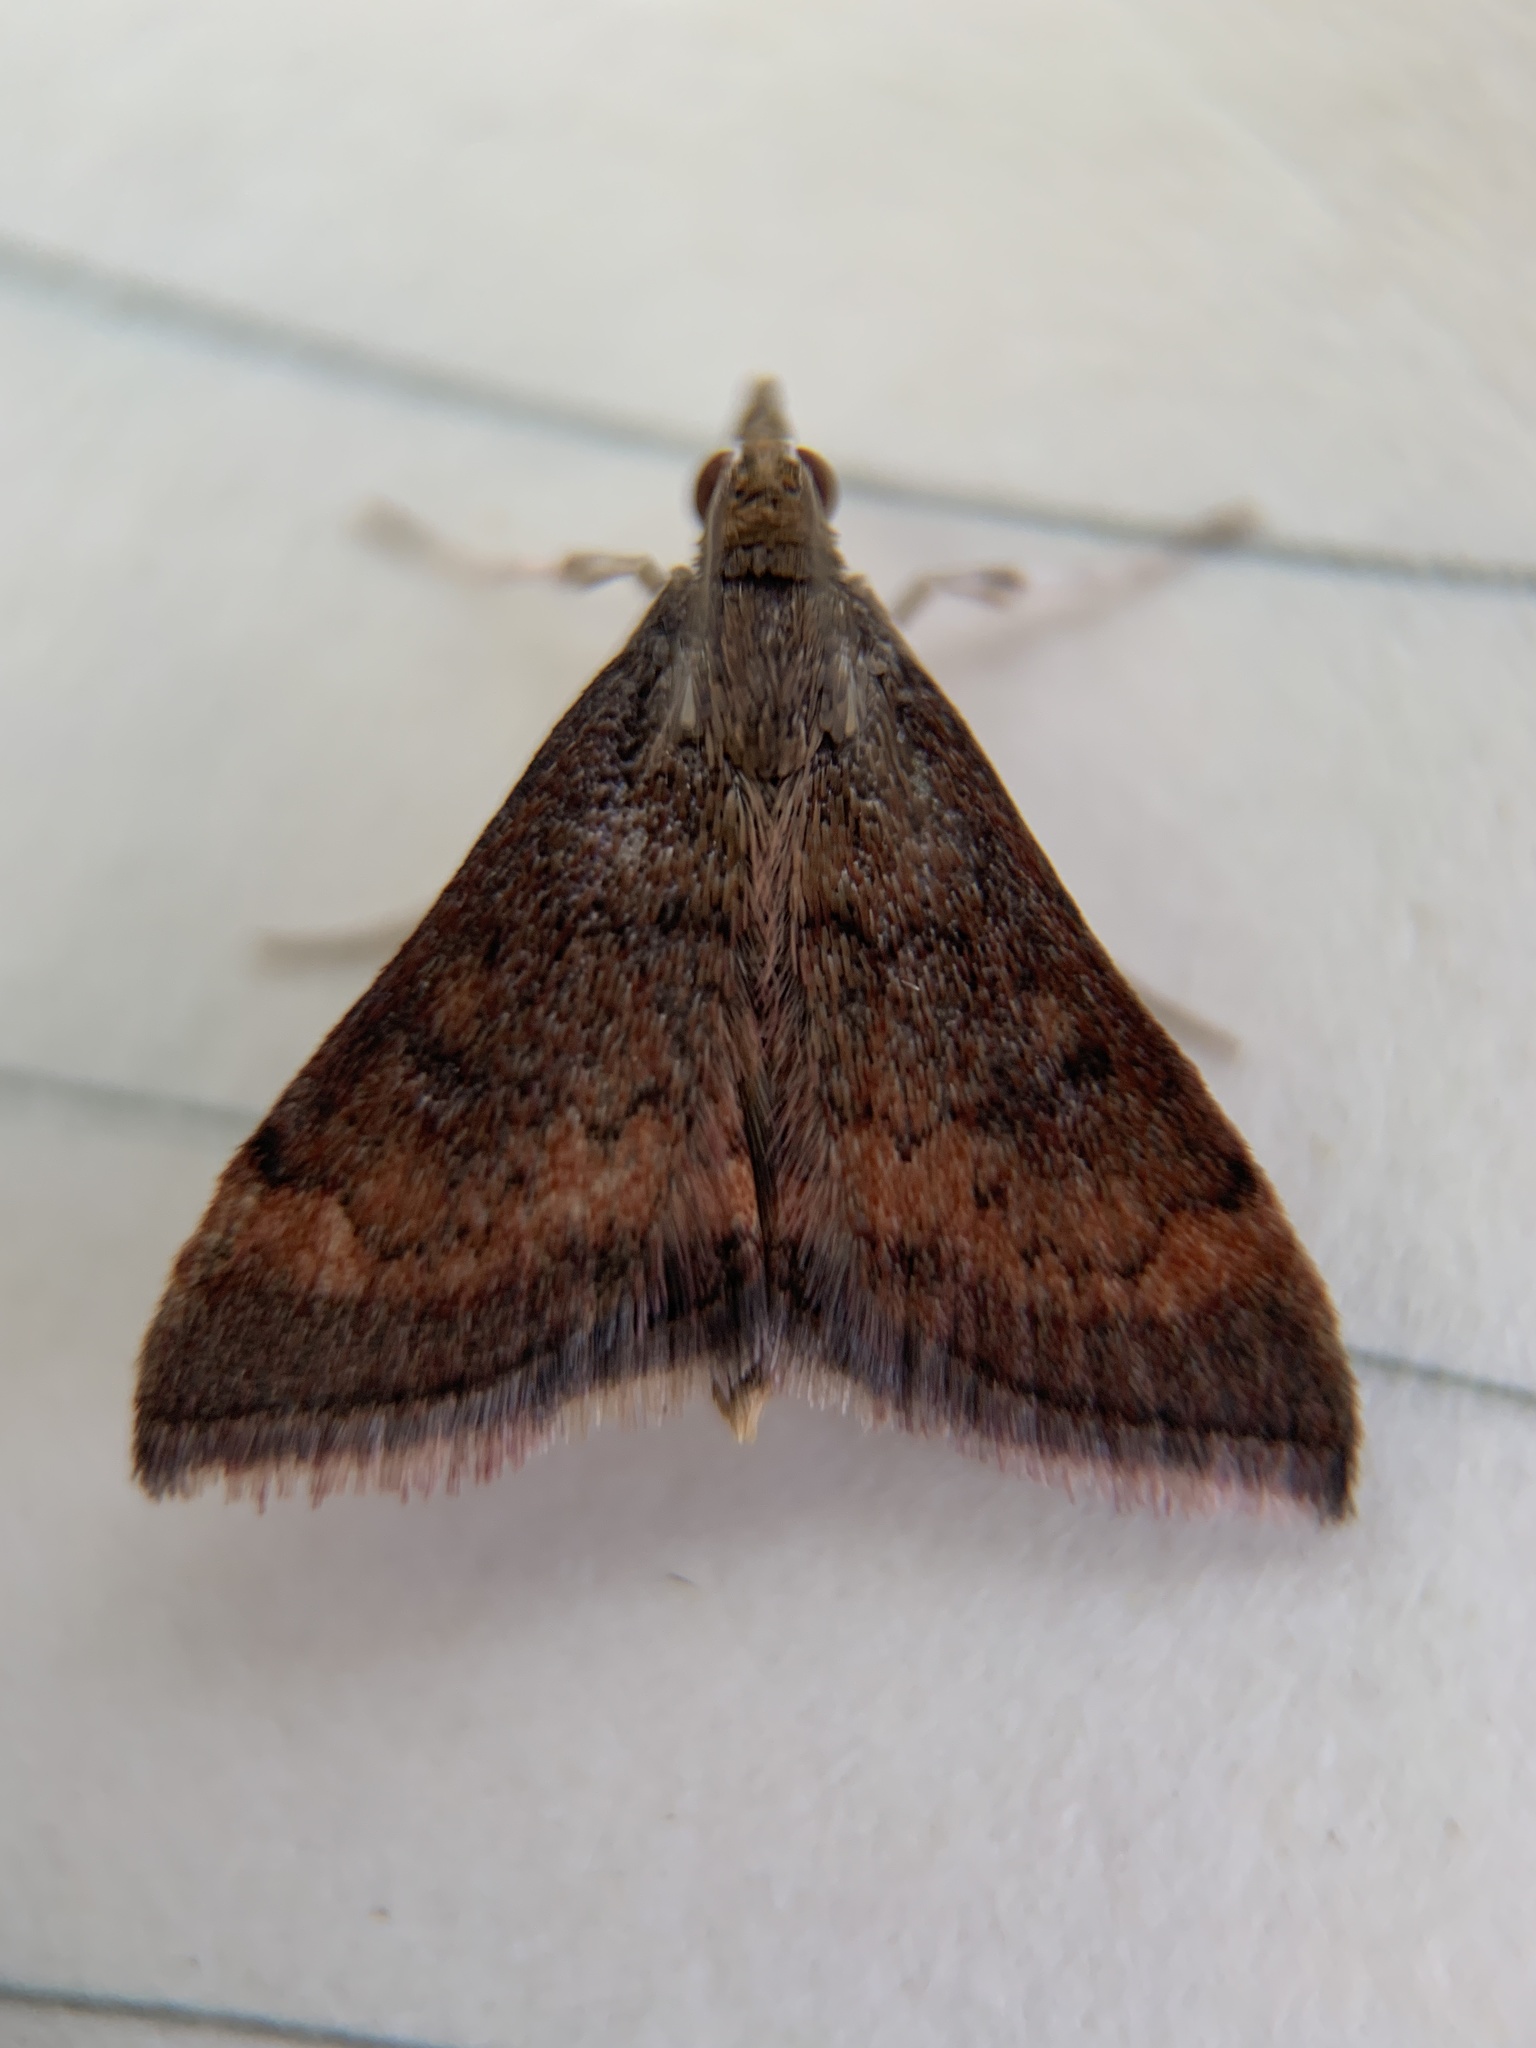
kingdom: Animalia
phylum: Arthropoda
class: Insecta
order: Lepidoptera
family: Crambidae
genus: Pyrausta
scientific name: Pyrausta rubricalis
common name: Variable reddish pyrausta
